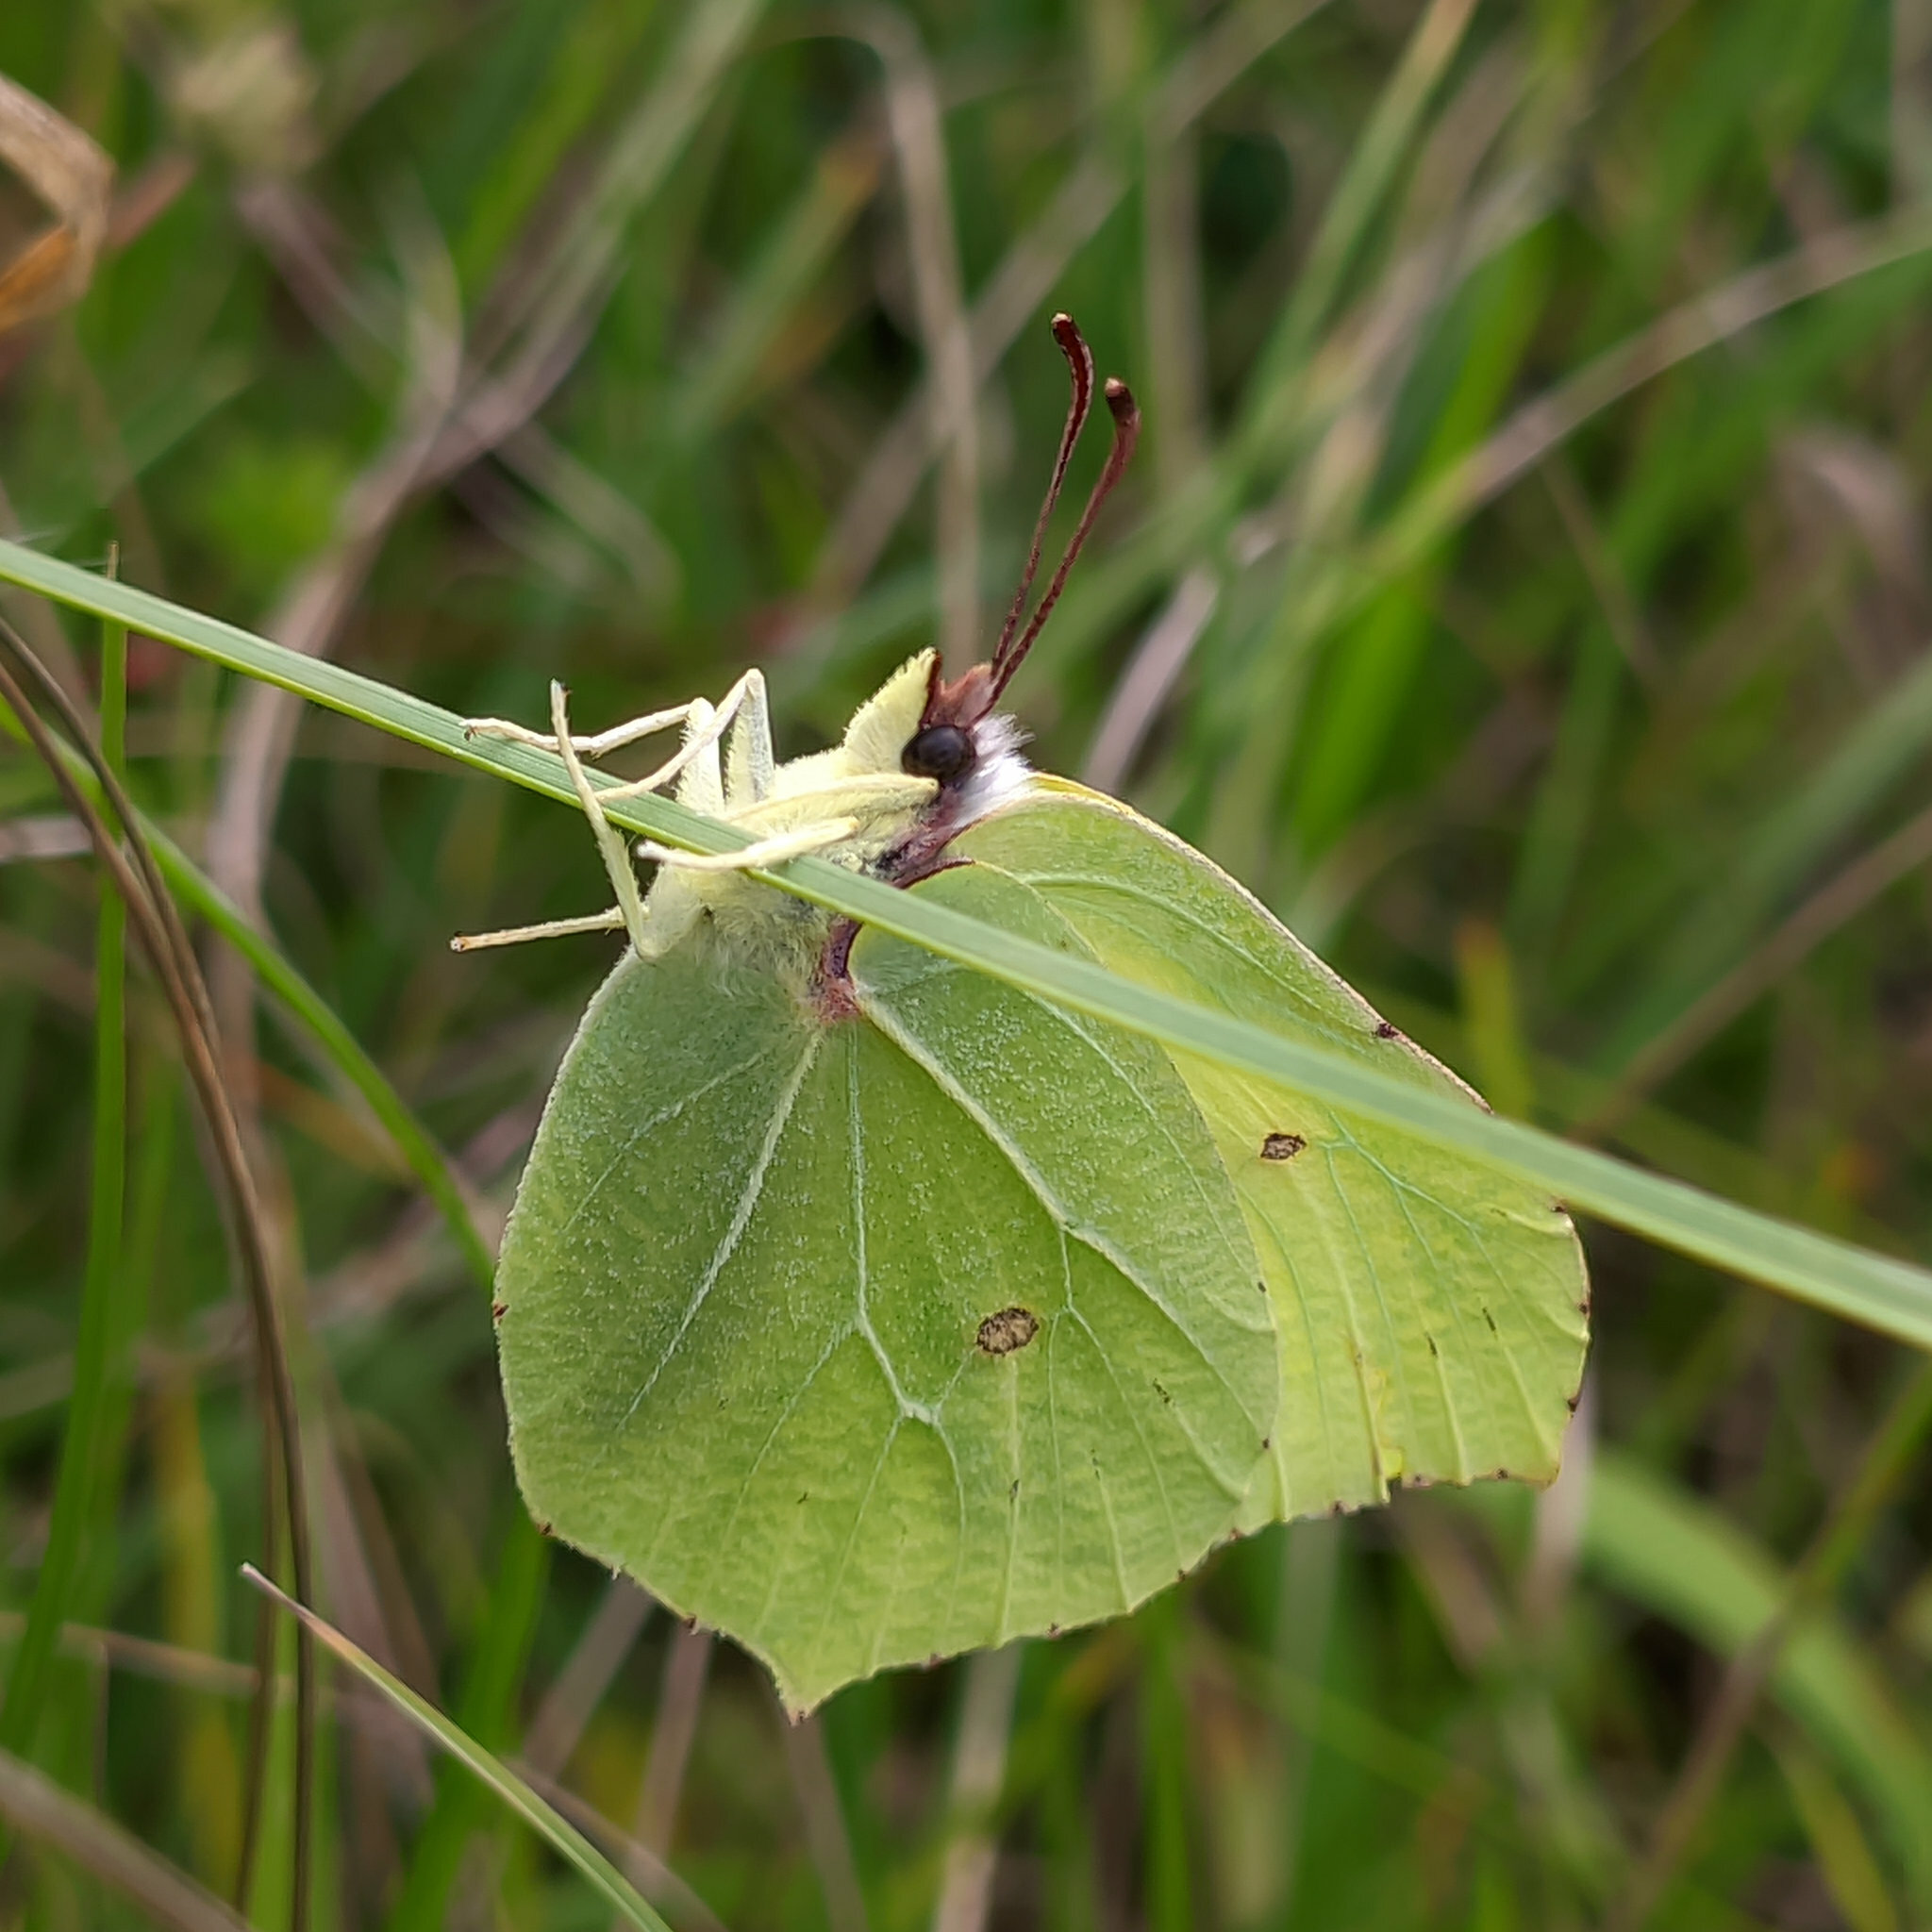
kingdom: Animalia
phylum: Arthropoda
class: Insecta
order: Lepidoptera
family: Pieridae
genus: Gonepteryx
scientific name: Gonepteryx rhamni
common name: Brimstone
